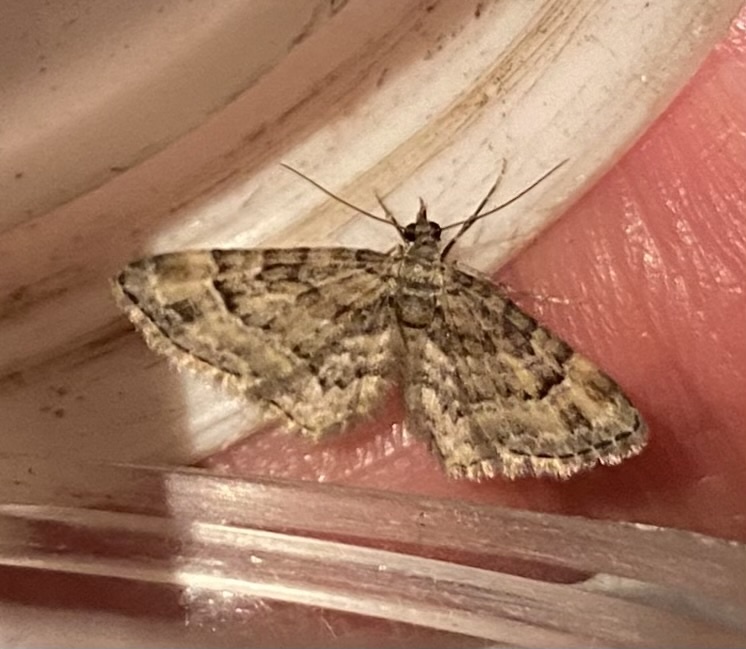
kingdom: Animalia
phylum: Arthropoda
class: Insecta
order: Lepidoptera
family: Geometridae
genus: Gymnoscelis
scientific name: Gymnoscelis rufifasciata
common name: Double-striped pug
